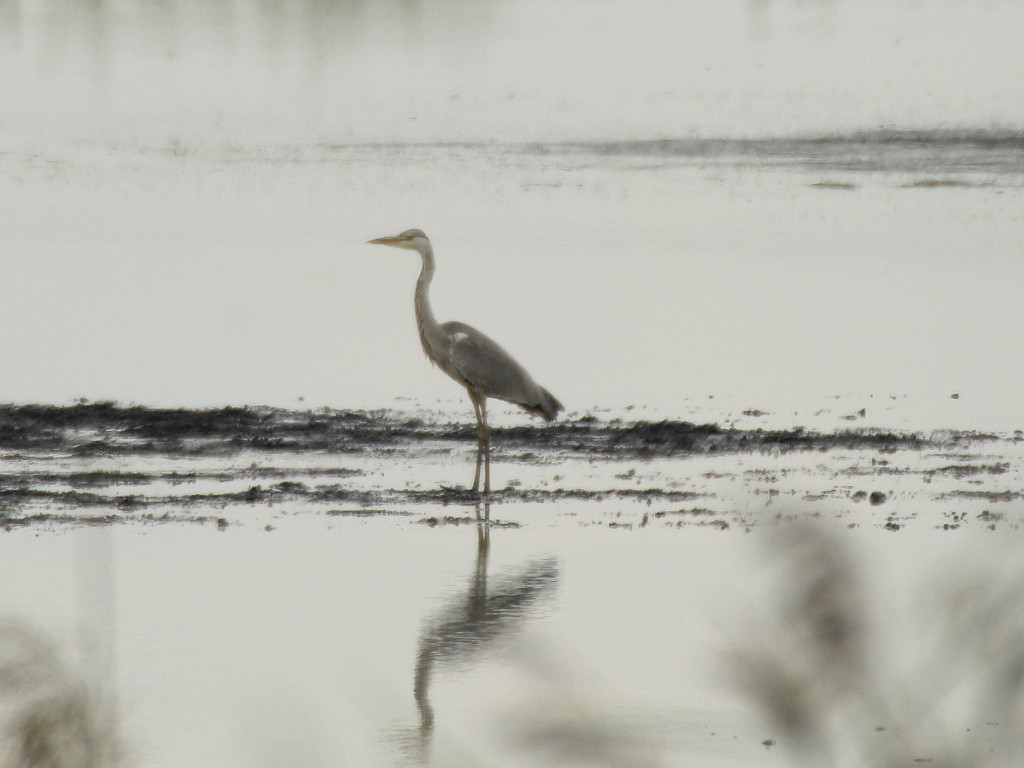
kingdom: Animalia
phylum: Chordata
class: Aves
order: Pelecaniformes
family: Ardeidae
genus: Ardea
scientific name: Ardea cinerea
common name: Grey heron
